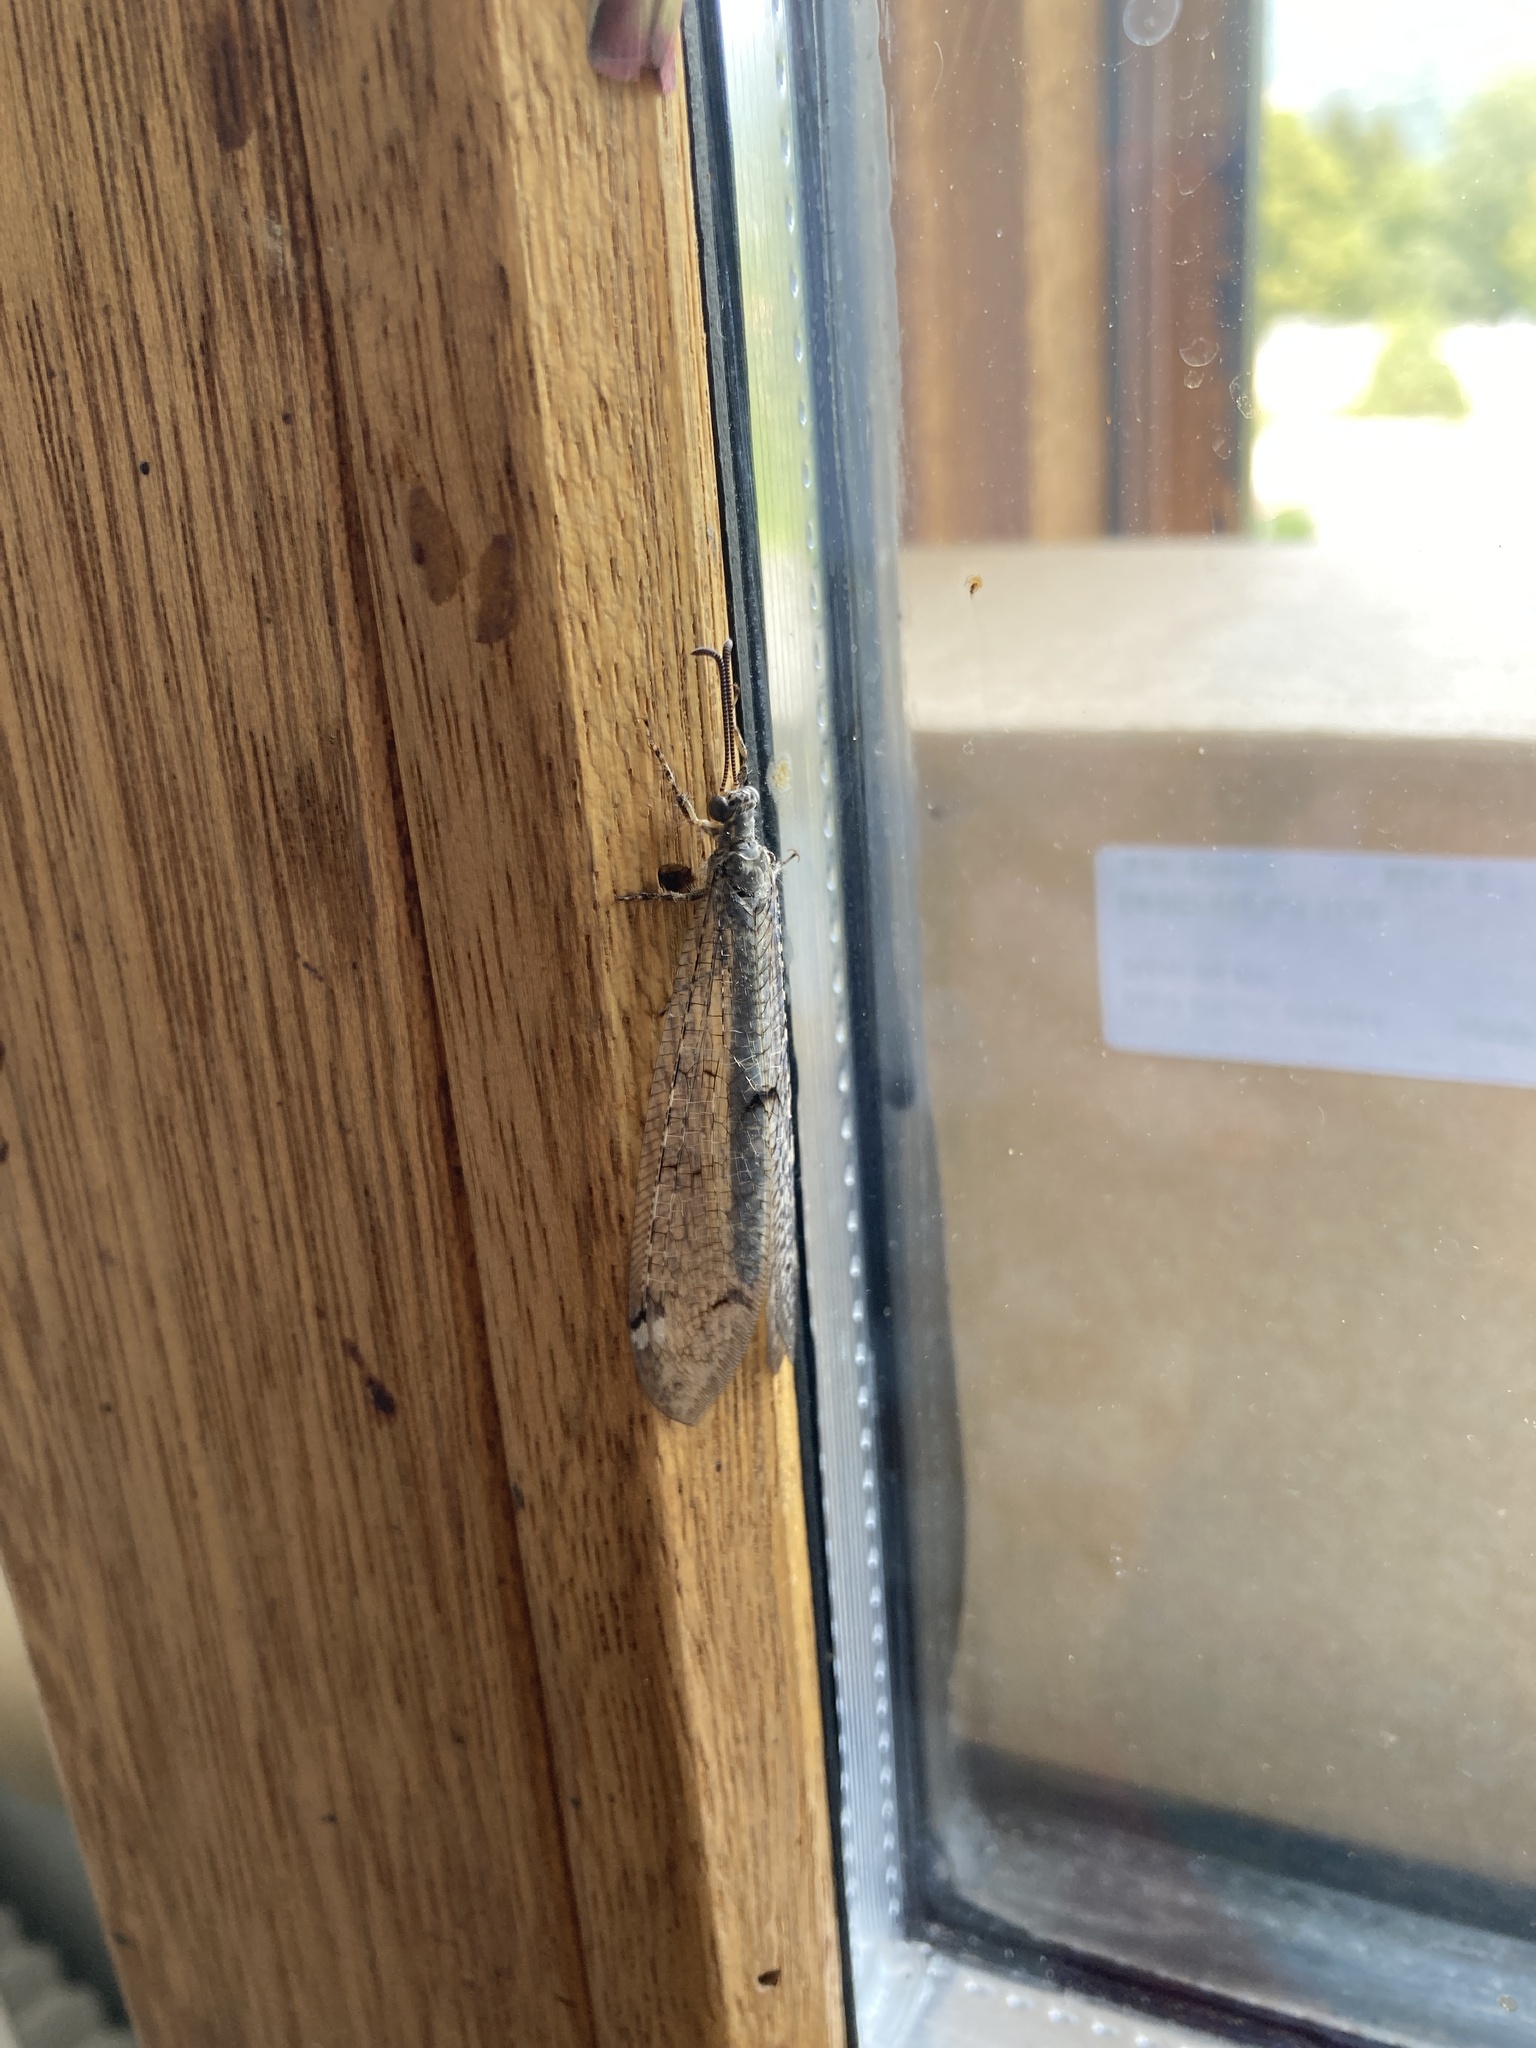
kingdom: Animalia
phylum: Arthropoda
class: Insecta
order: Neuroptera
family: Myrmeleontidae
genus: Distoleon
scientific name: Distoleon tetragrammicus
